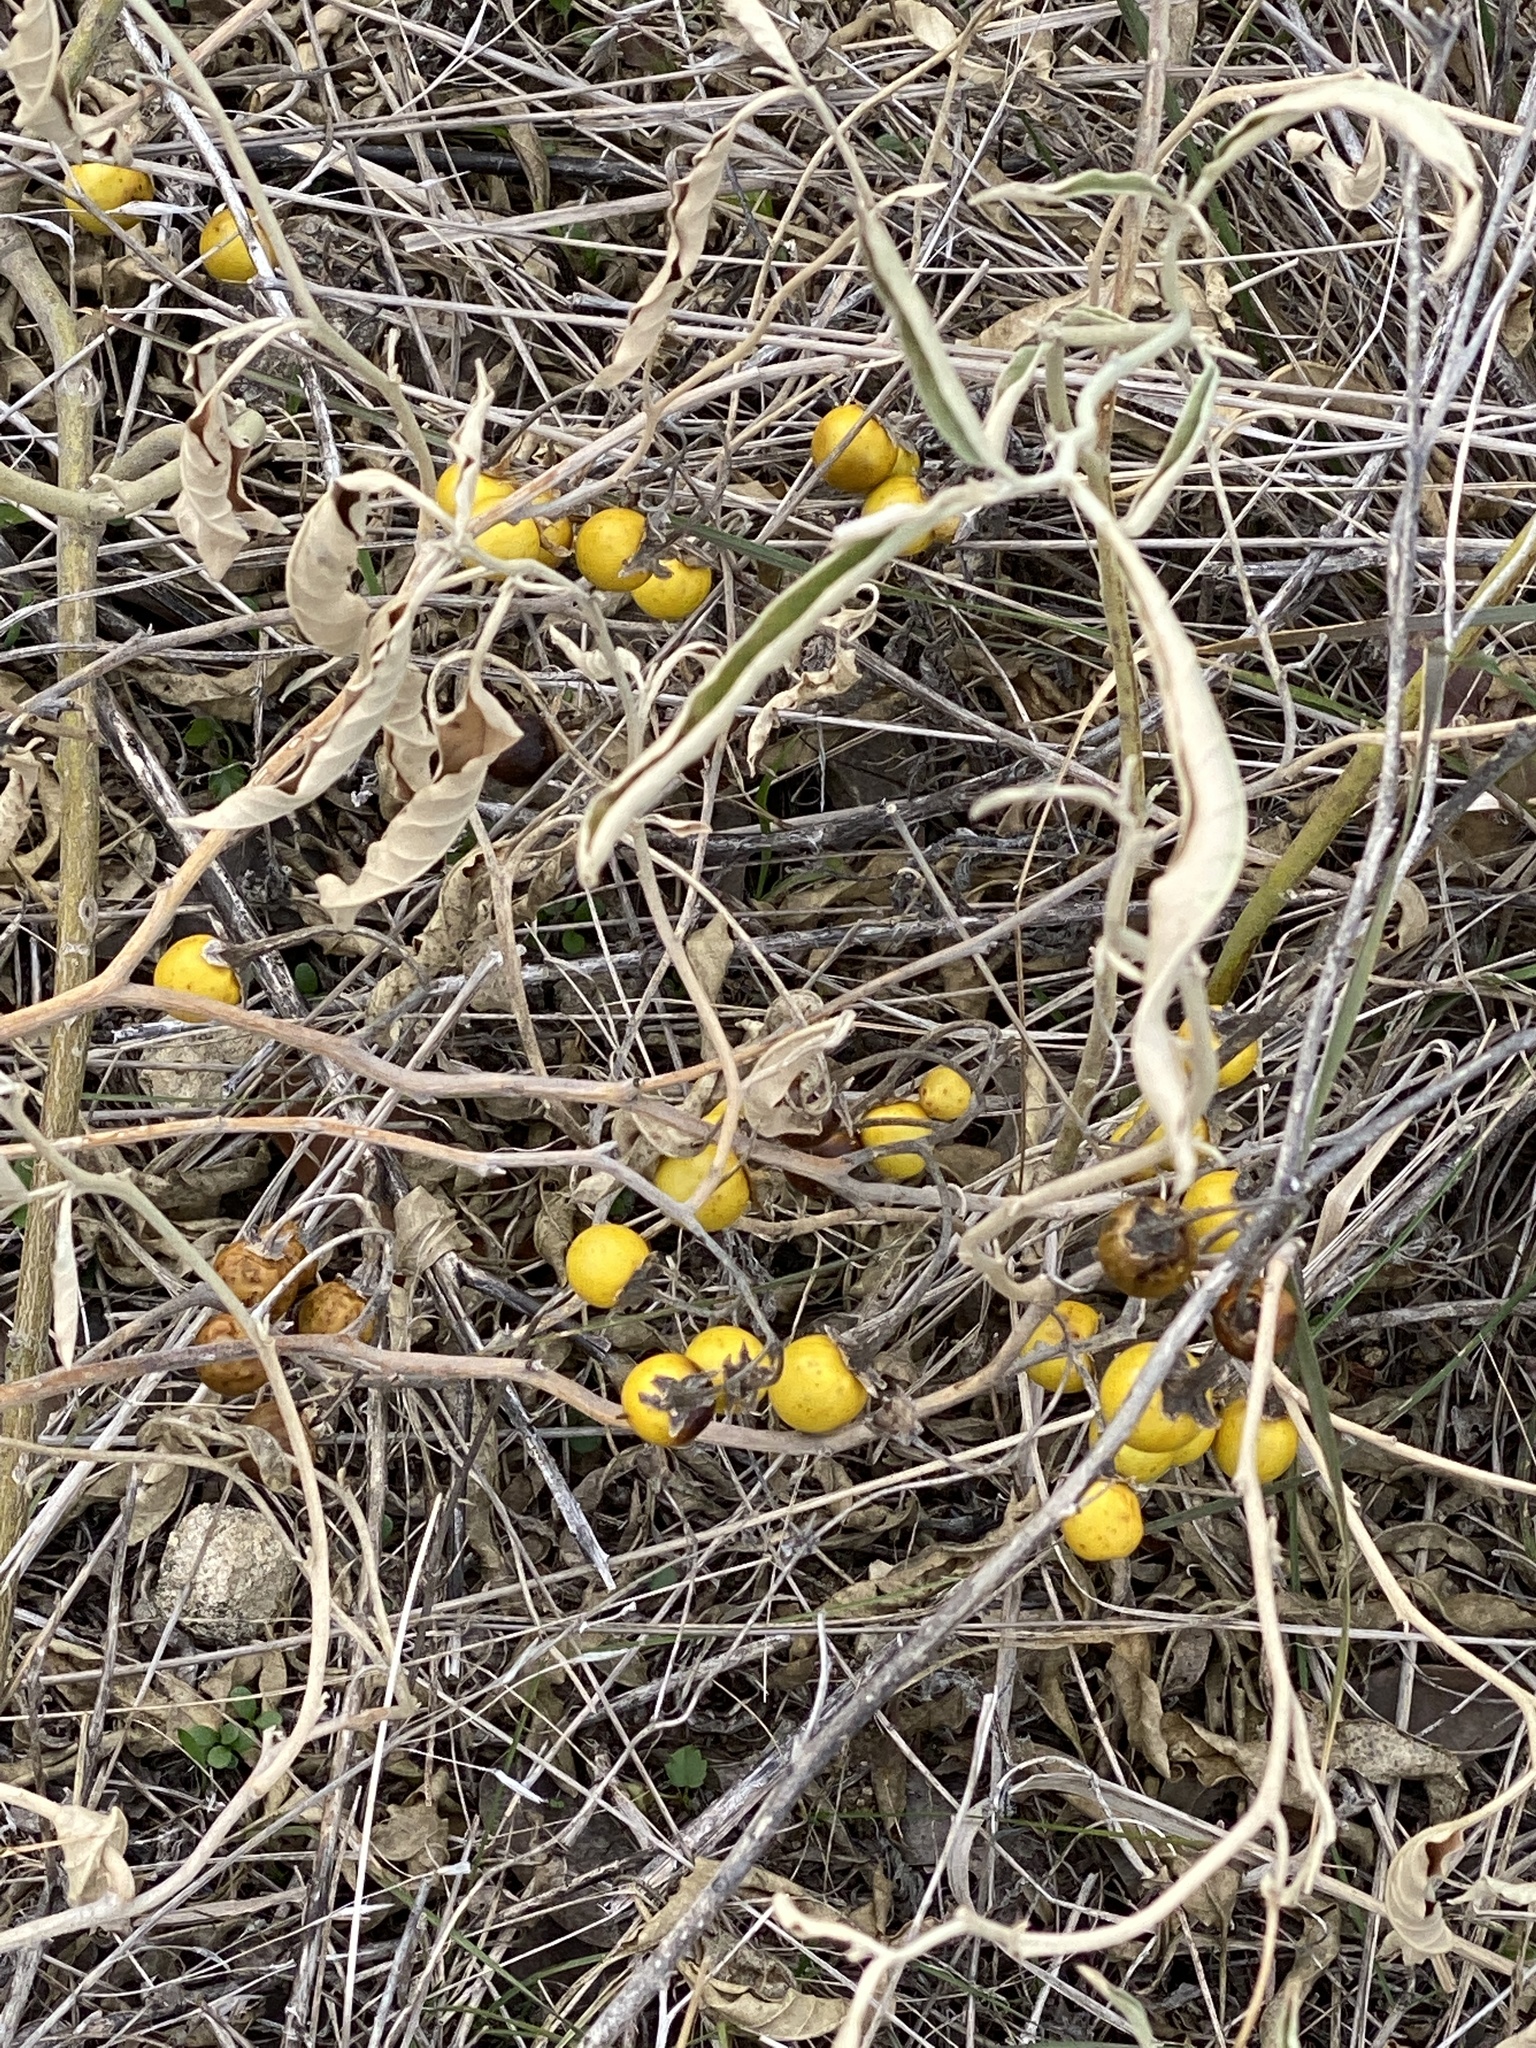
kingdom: Plantae
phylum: Tracheophyta
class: Magnoliopsida
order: Solanales
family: Solanaceae
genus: Solanum
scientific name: Solanum elaeagnifolium
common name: Silverleaf nightshade
